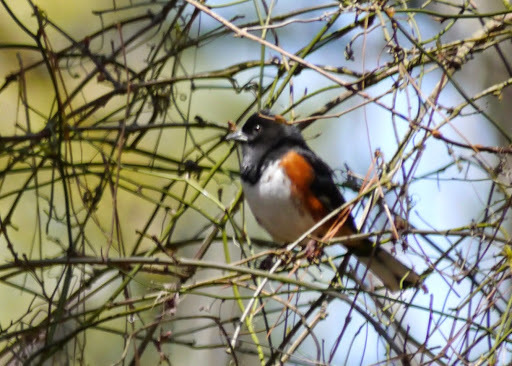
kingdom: Animalia
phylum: Chordata
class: Aves
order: Passeriformes
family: Passerellidae
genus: Pipilo
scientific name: Pipilo erythrophthalmus
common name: Eastern towhee
